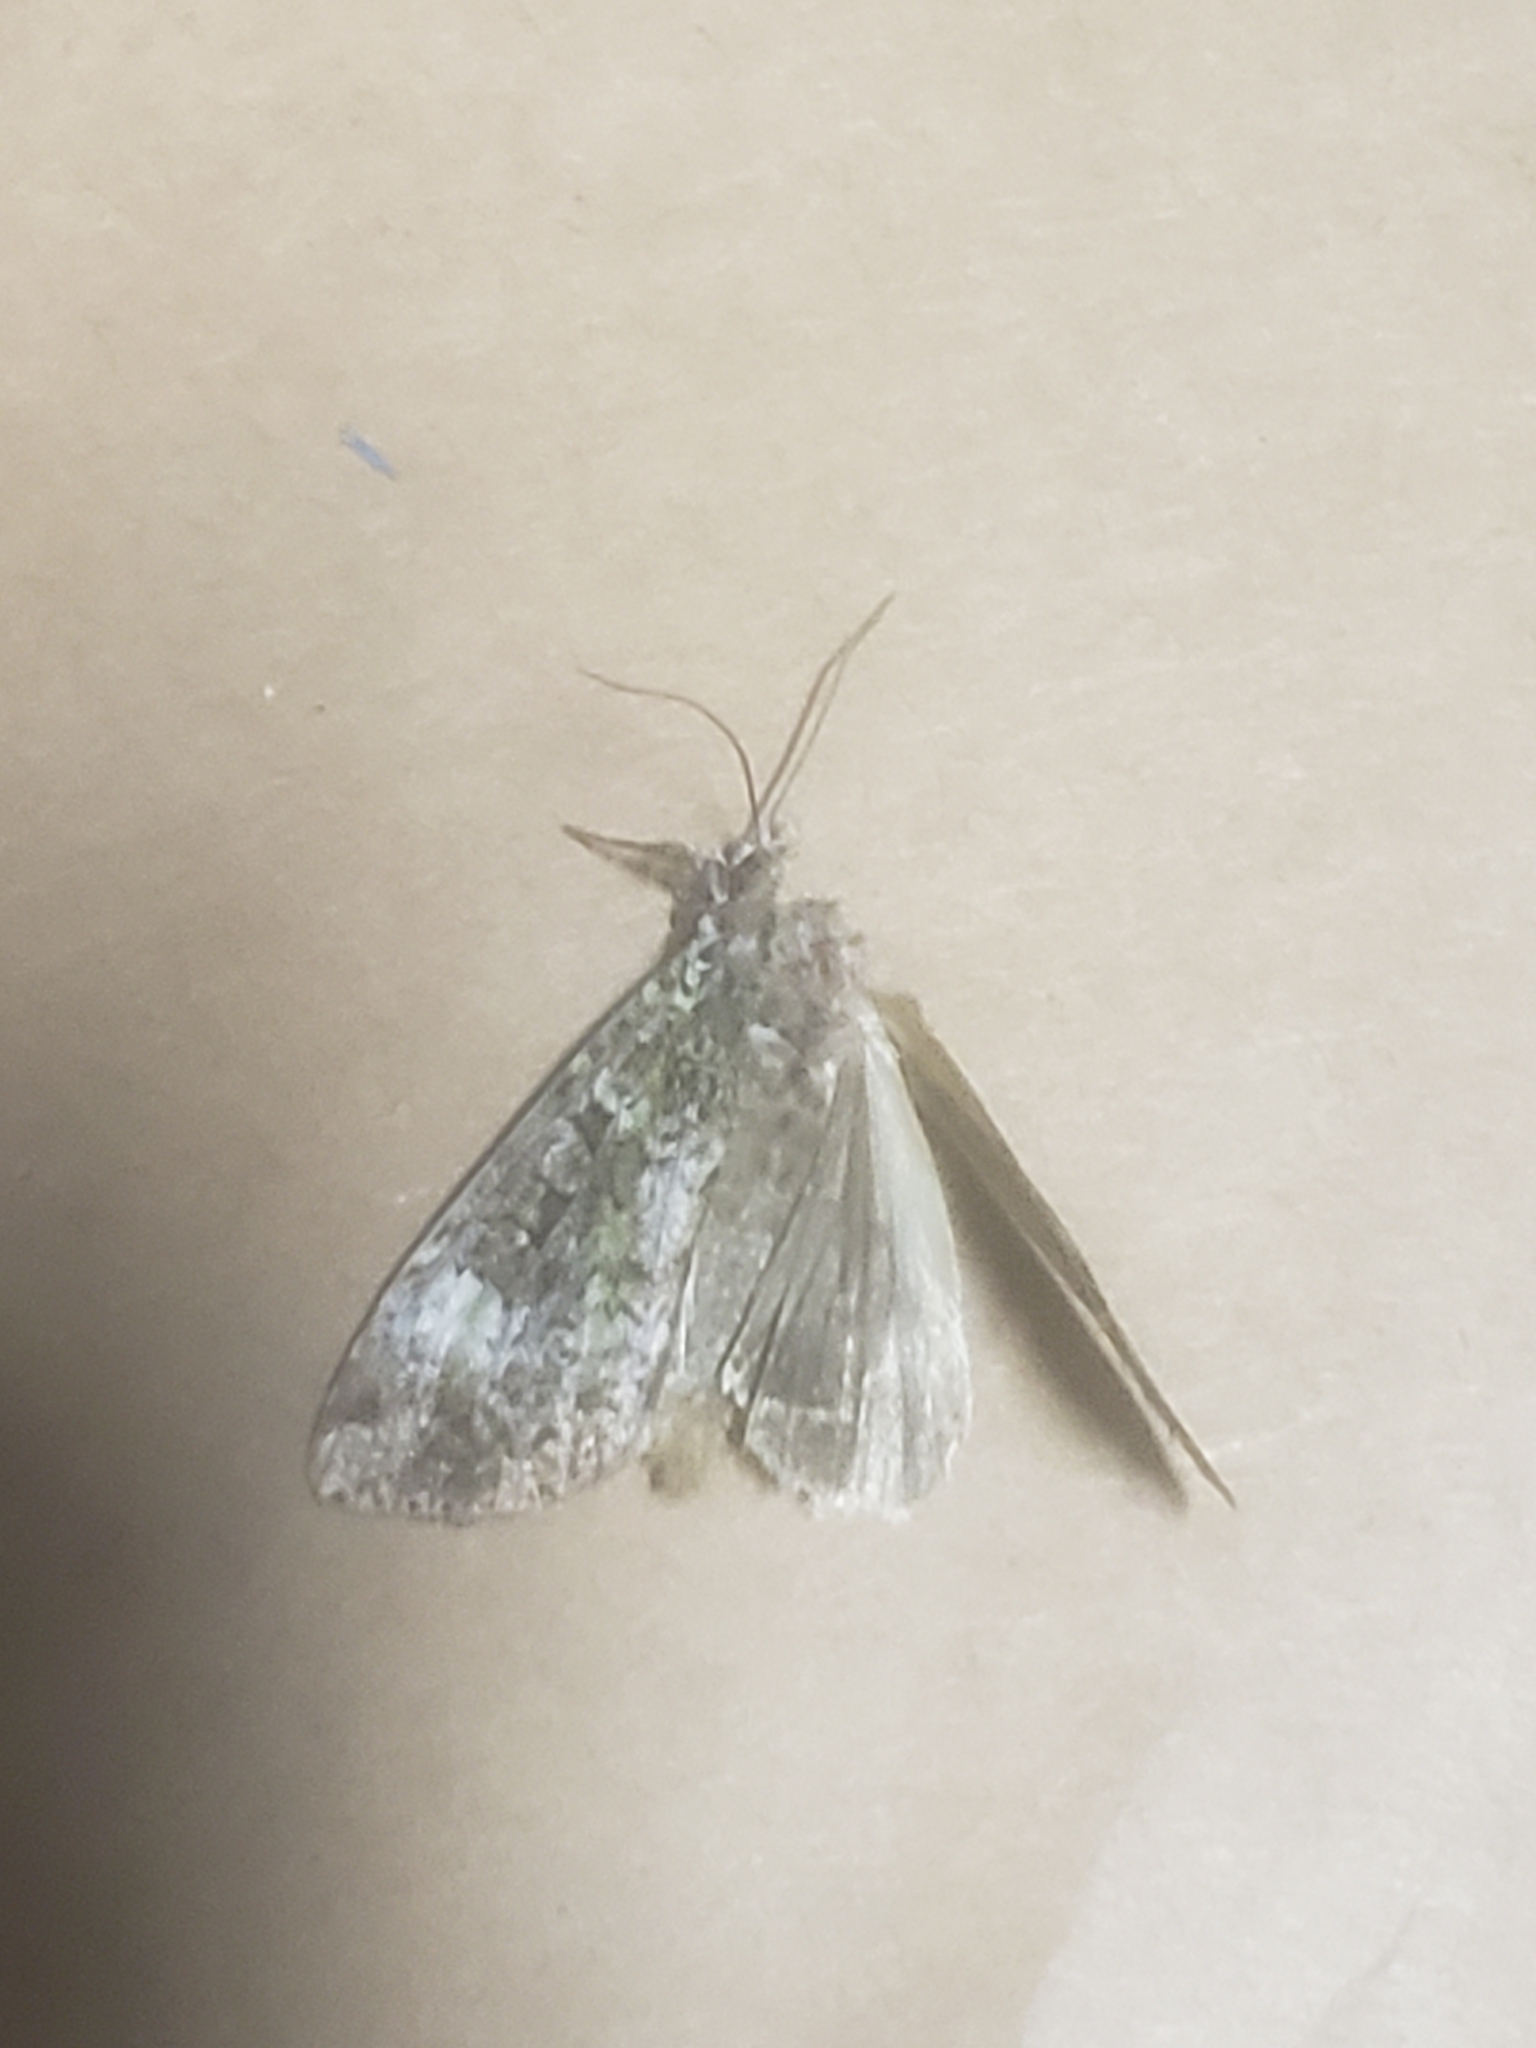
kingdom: Animalia
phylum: Arthropoda
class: Insecta
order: Lepidoptera
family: Noctuidae
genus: Anaplectoides
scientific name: Anaplectoides prasina
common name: Green arches
